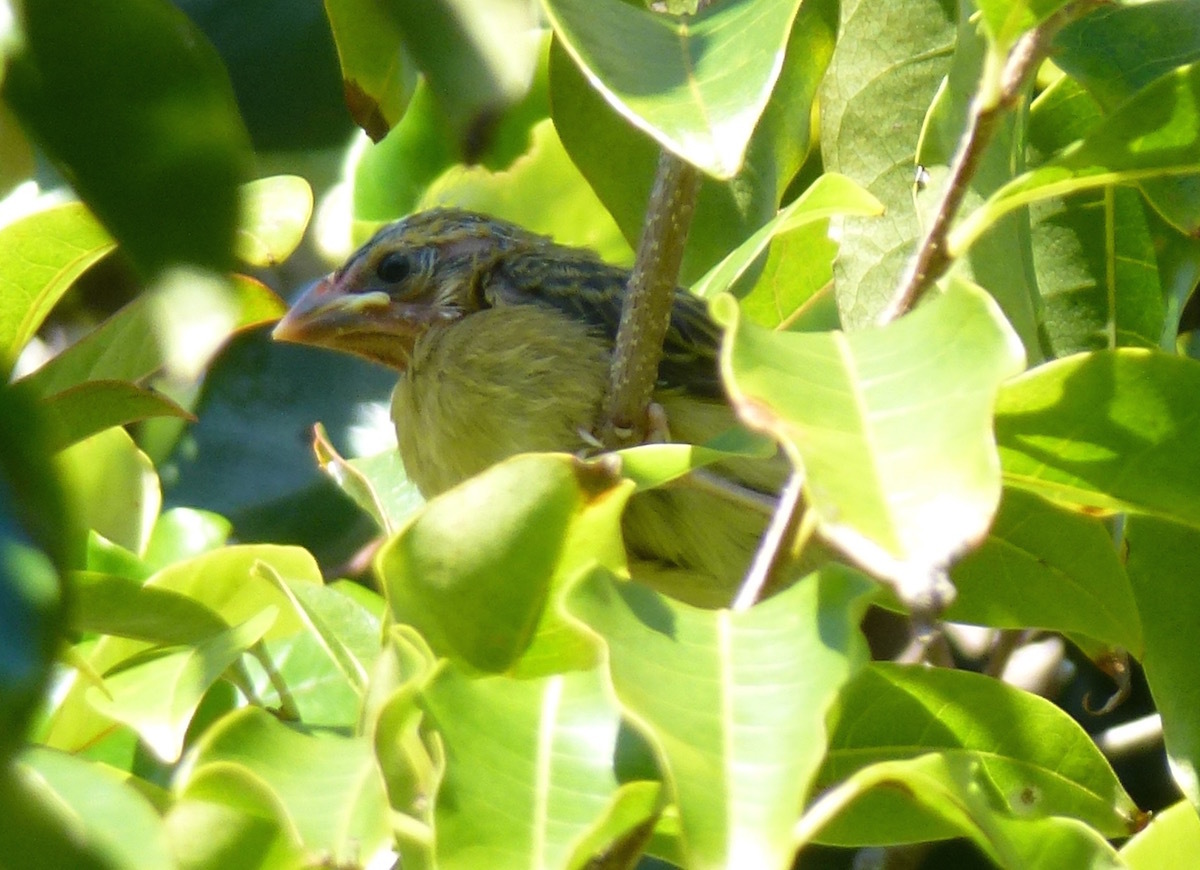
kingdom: Animalia
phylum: Chordata
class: Aves
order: Passeriformes
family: Ploceidae
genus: Foudia
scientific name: Foudia madagascariensis
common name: Red fody
